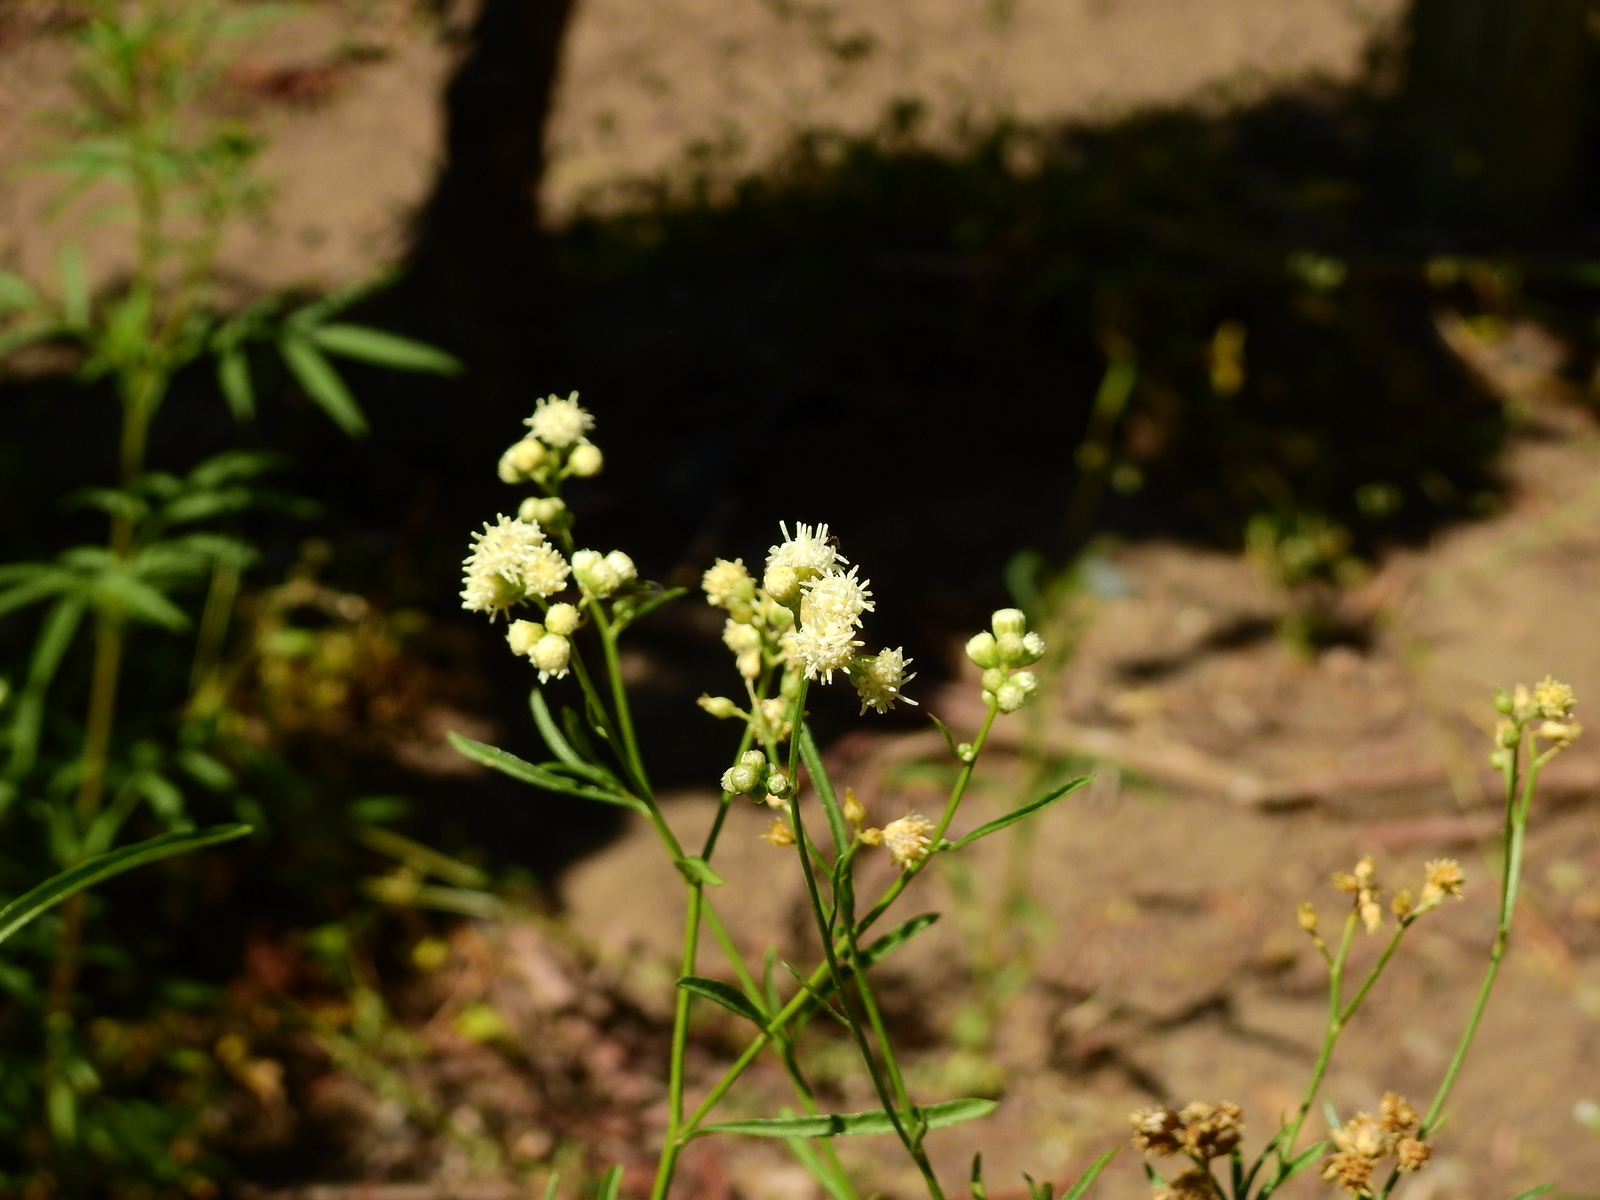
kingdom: Plantae
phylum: Tracheophyta
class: Magnoliopsida
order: Asterales
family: Asteraceae
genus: Baccharis
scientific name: Baccharis salicifolia
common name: Sticky baccharis
